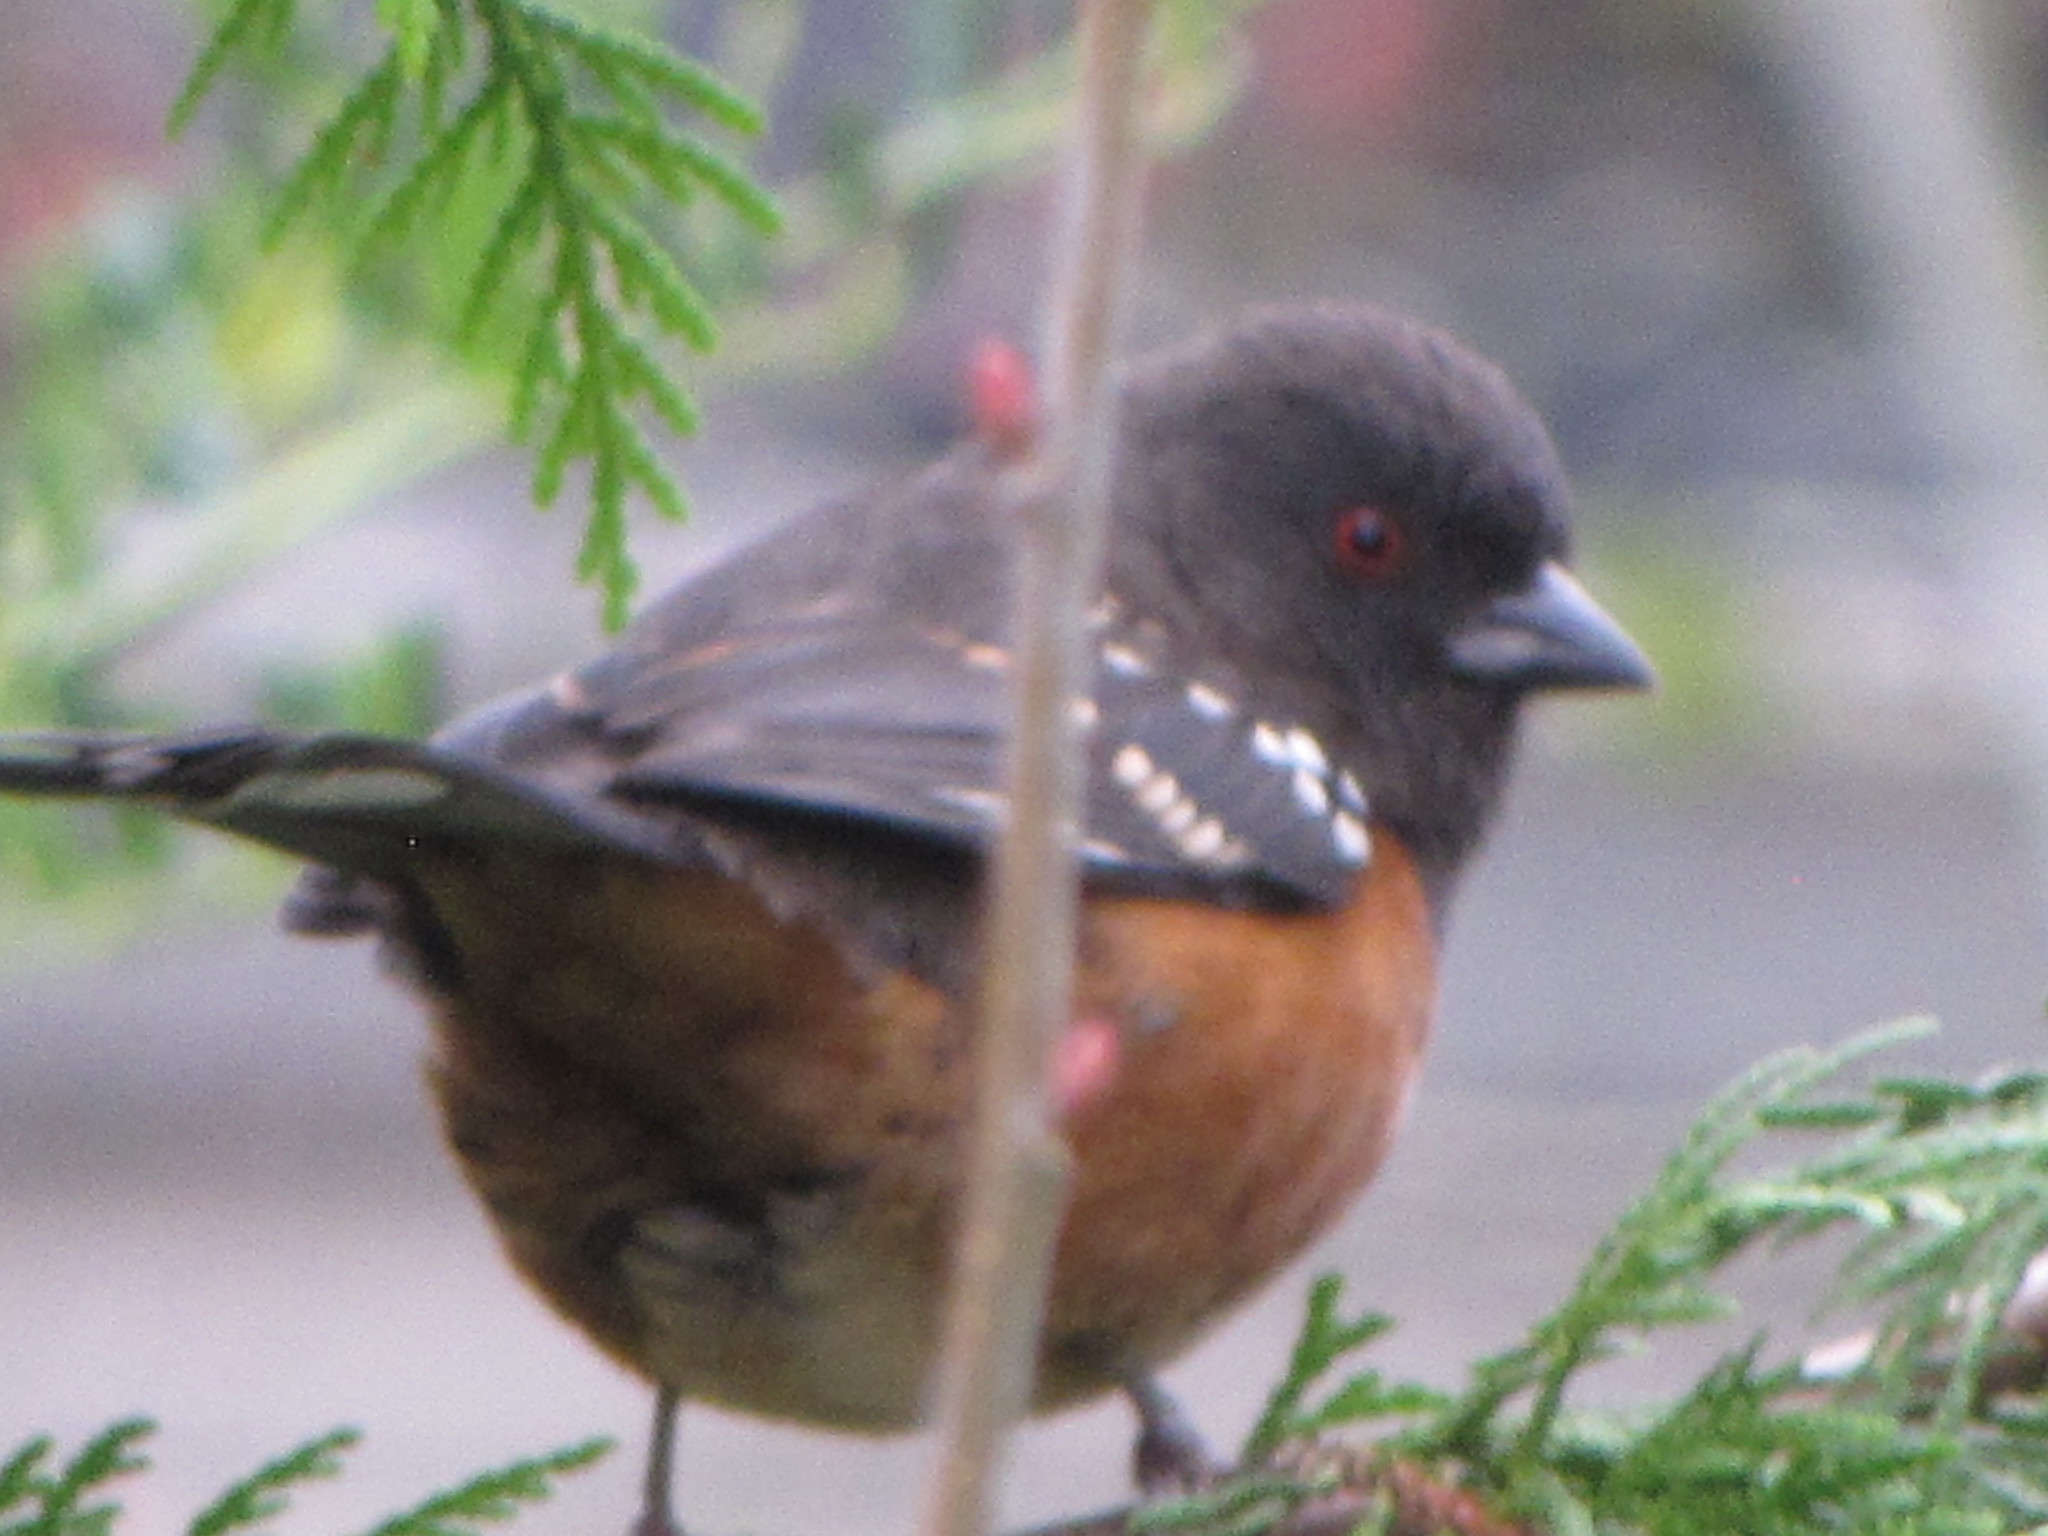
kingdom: Animalia
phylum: Chordata
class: Aves
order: Passeriformes
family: Passerellidae
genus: Pipilo
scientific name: Pipilo maculatus
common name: Spotted towhee
